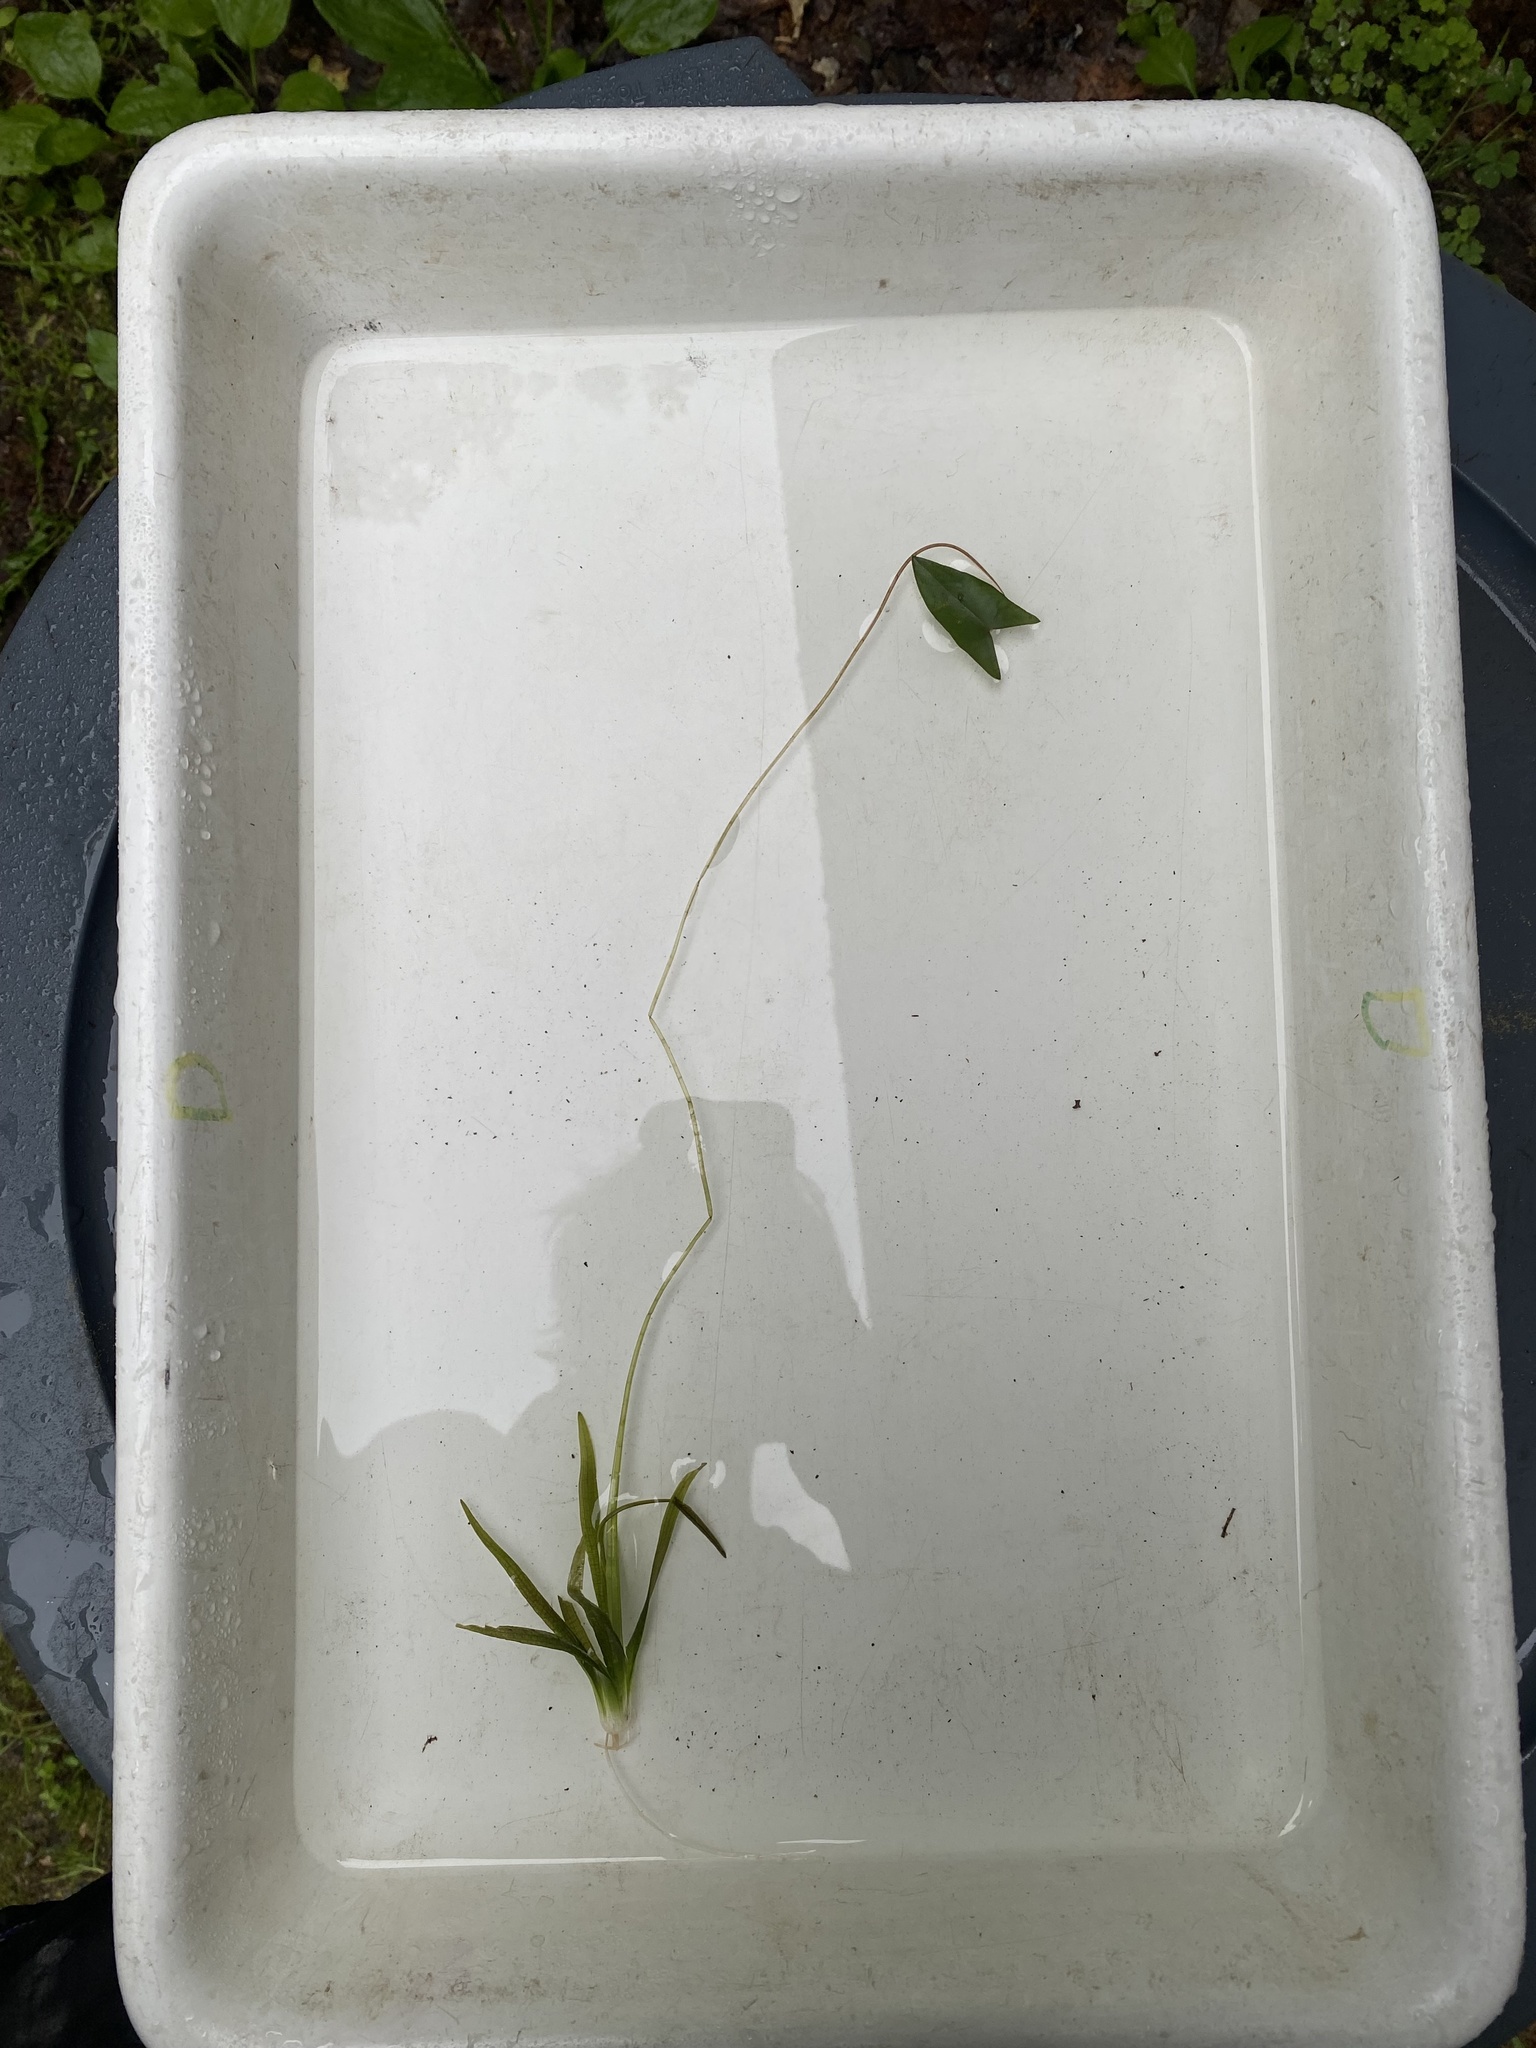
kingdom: Plantae
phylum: Tracheophyta
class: Liliopsida
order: Alismatales
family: Alismataceae
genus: Sagittaria
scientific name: Sagittaria cuneata
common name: Northern arrowhead
